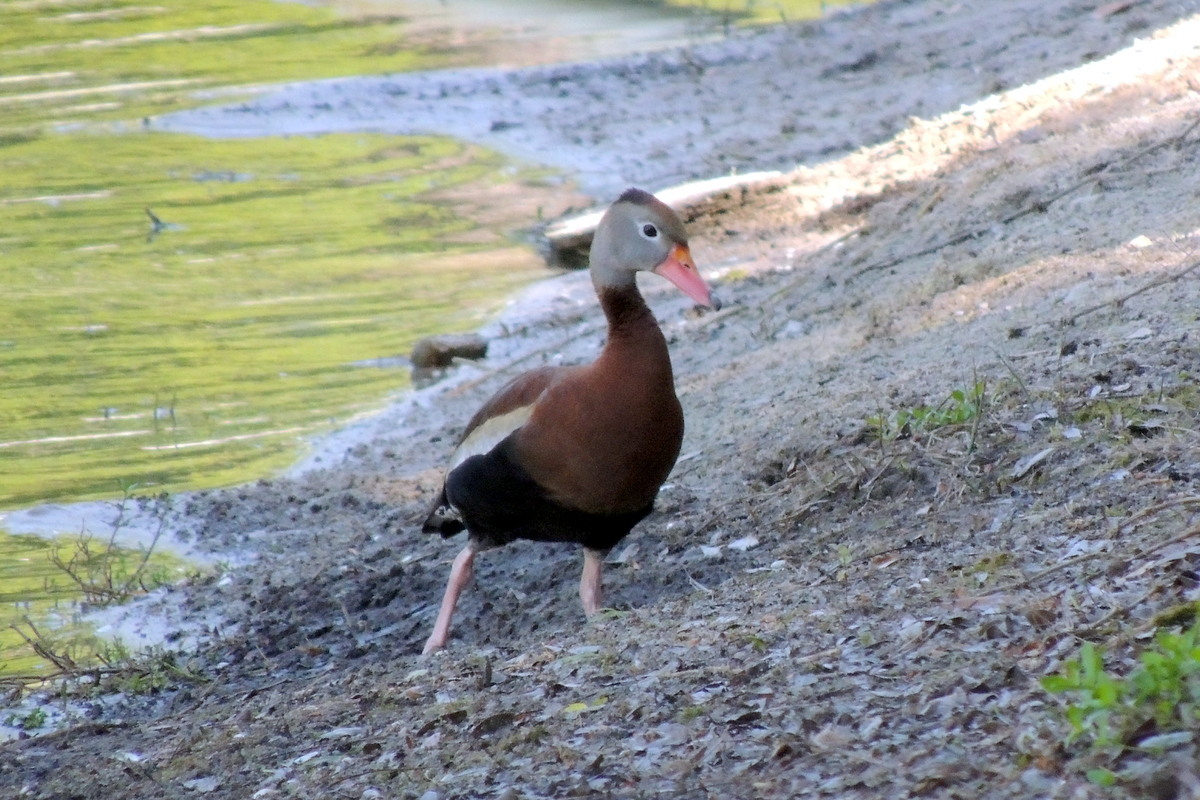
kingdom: Animalia
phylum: Chordata
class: Aves
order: Anseriformes
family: Anatidae
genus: Dendrocygna
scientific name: Dendrocygna autumnalis
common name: Black-bellied whistling duck
